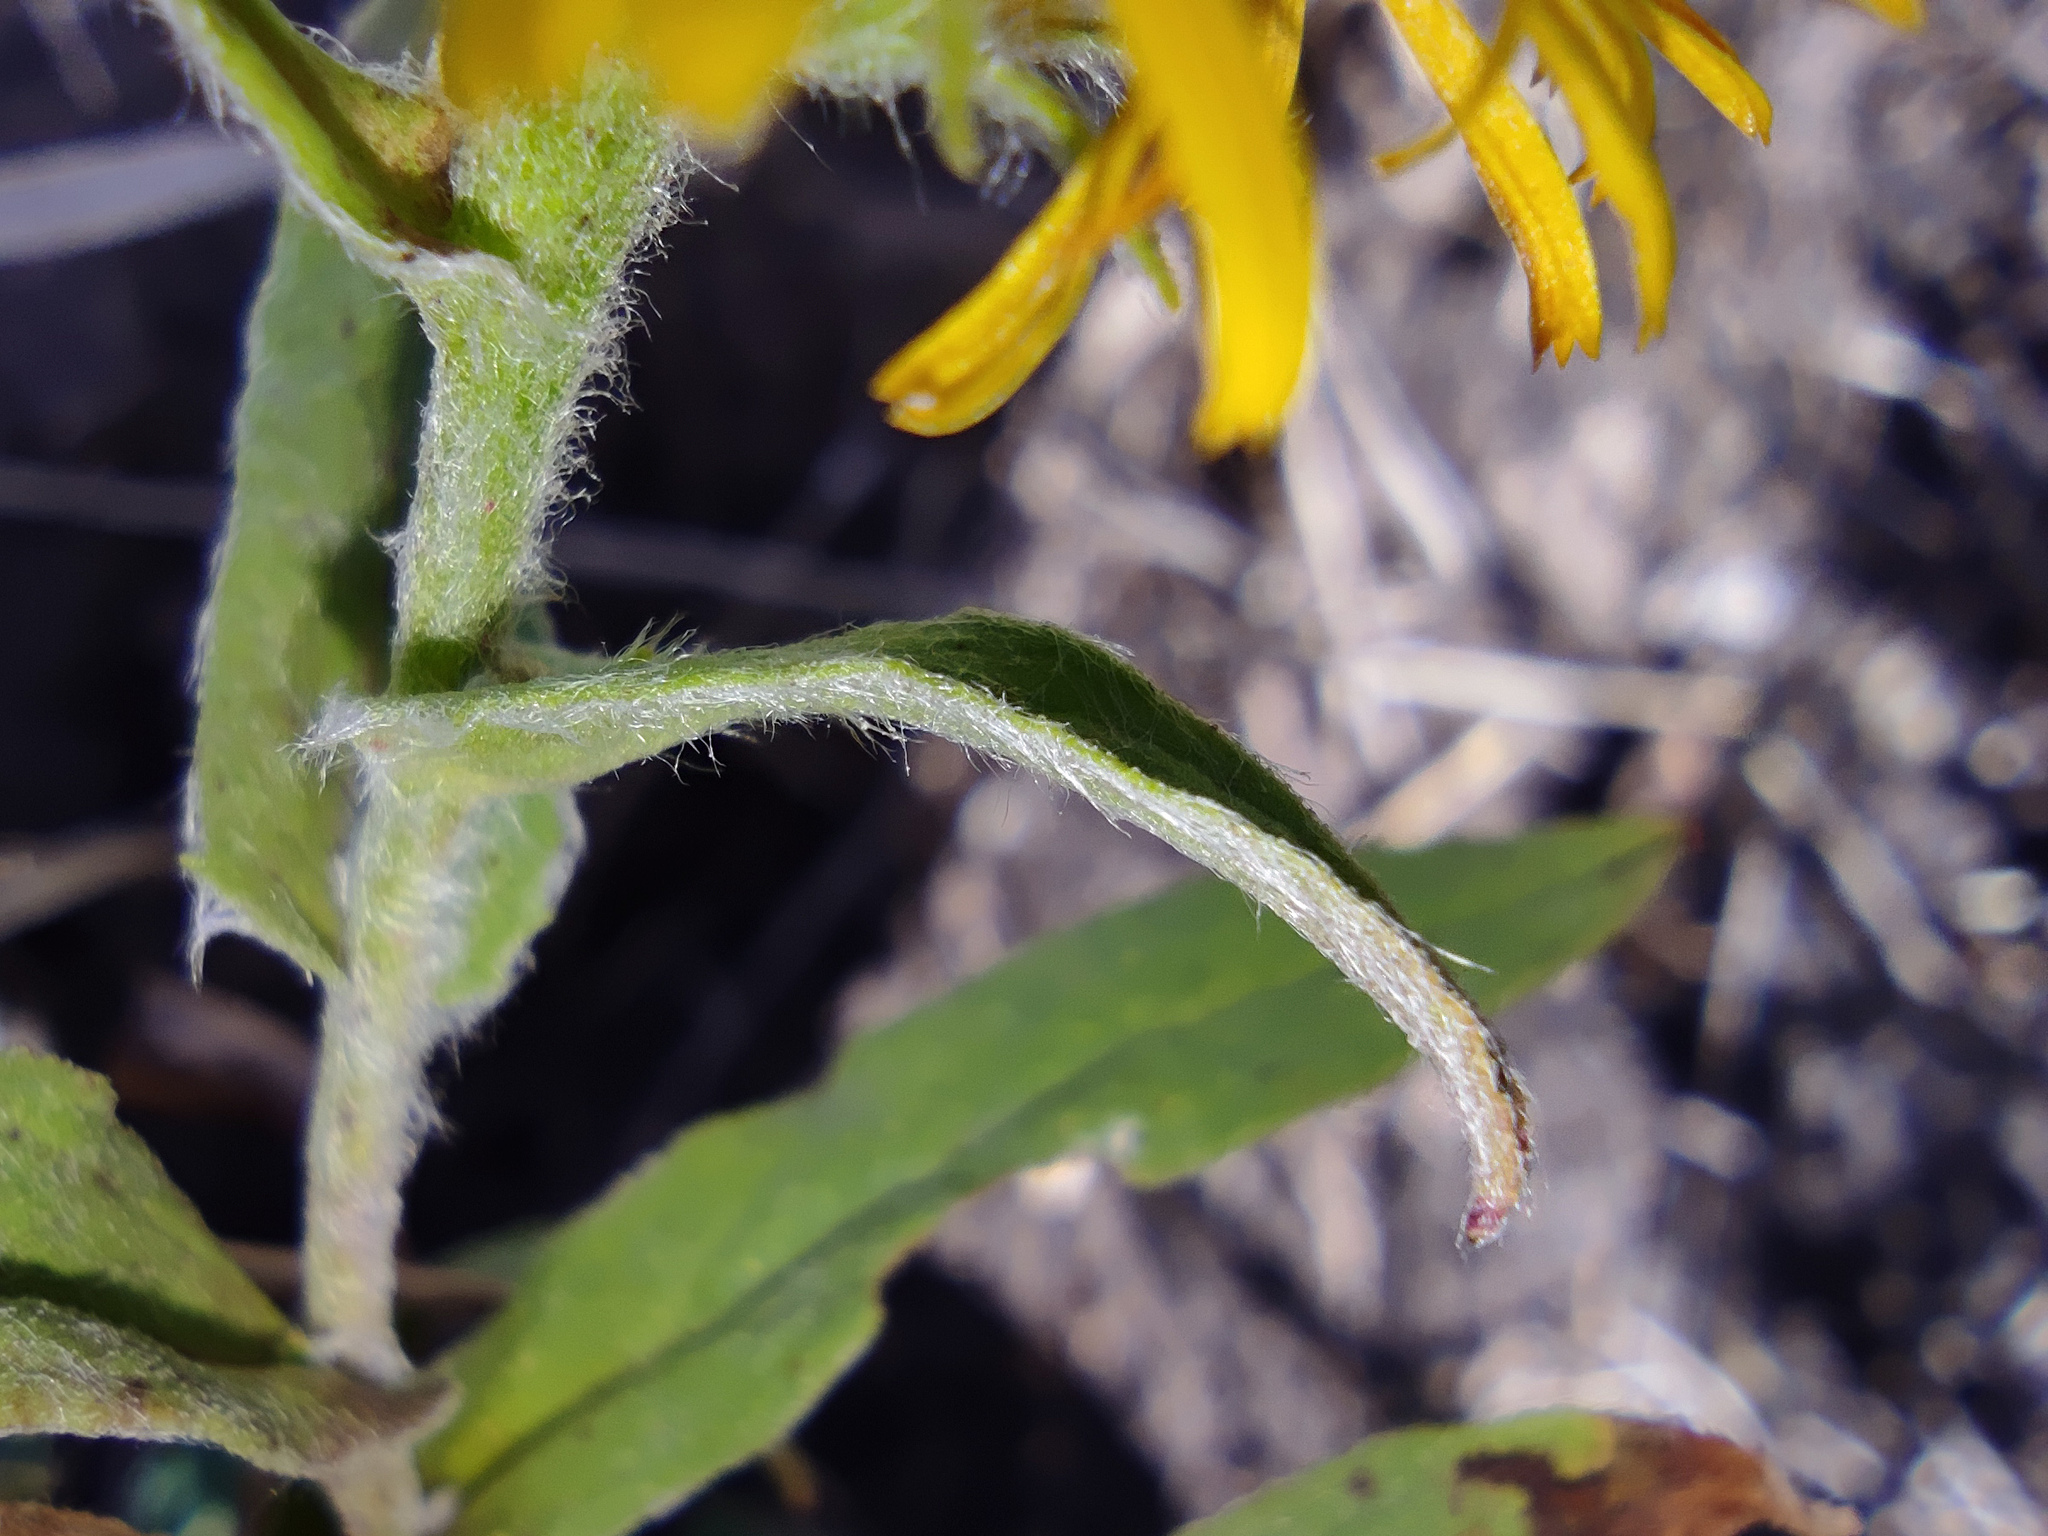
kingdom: Plantae
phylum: Tracheophyta
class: Magnoliopsida
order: Asterales
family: Asteraceae
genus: Pentanema
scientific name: Pentanema britannicum
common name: British elecampane
